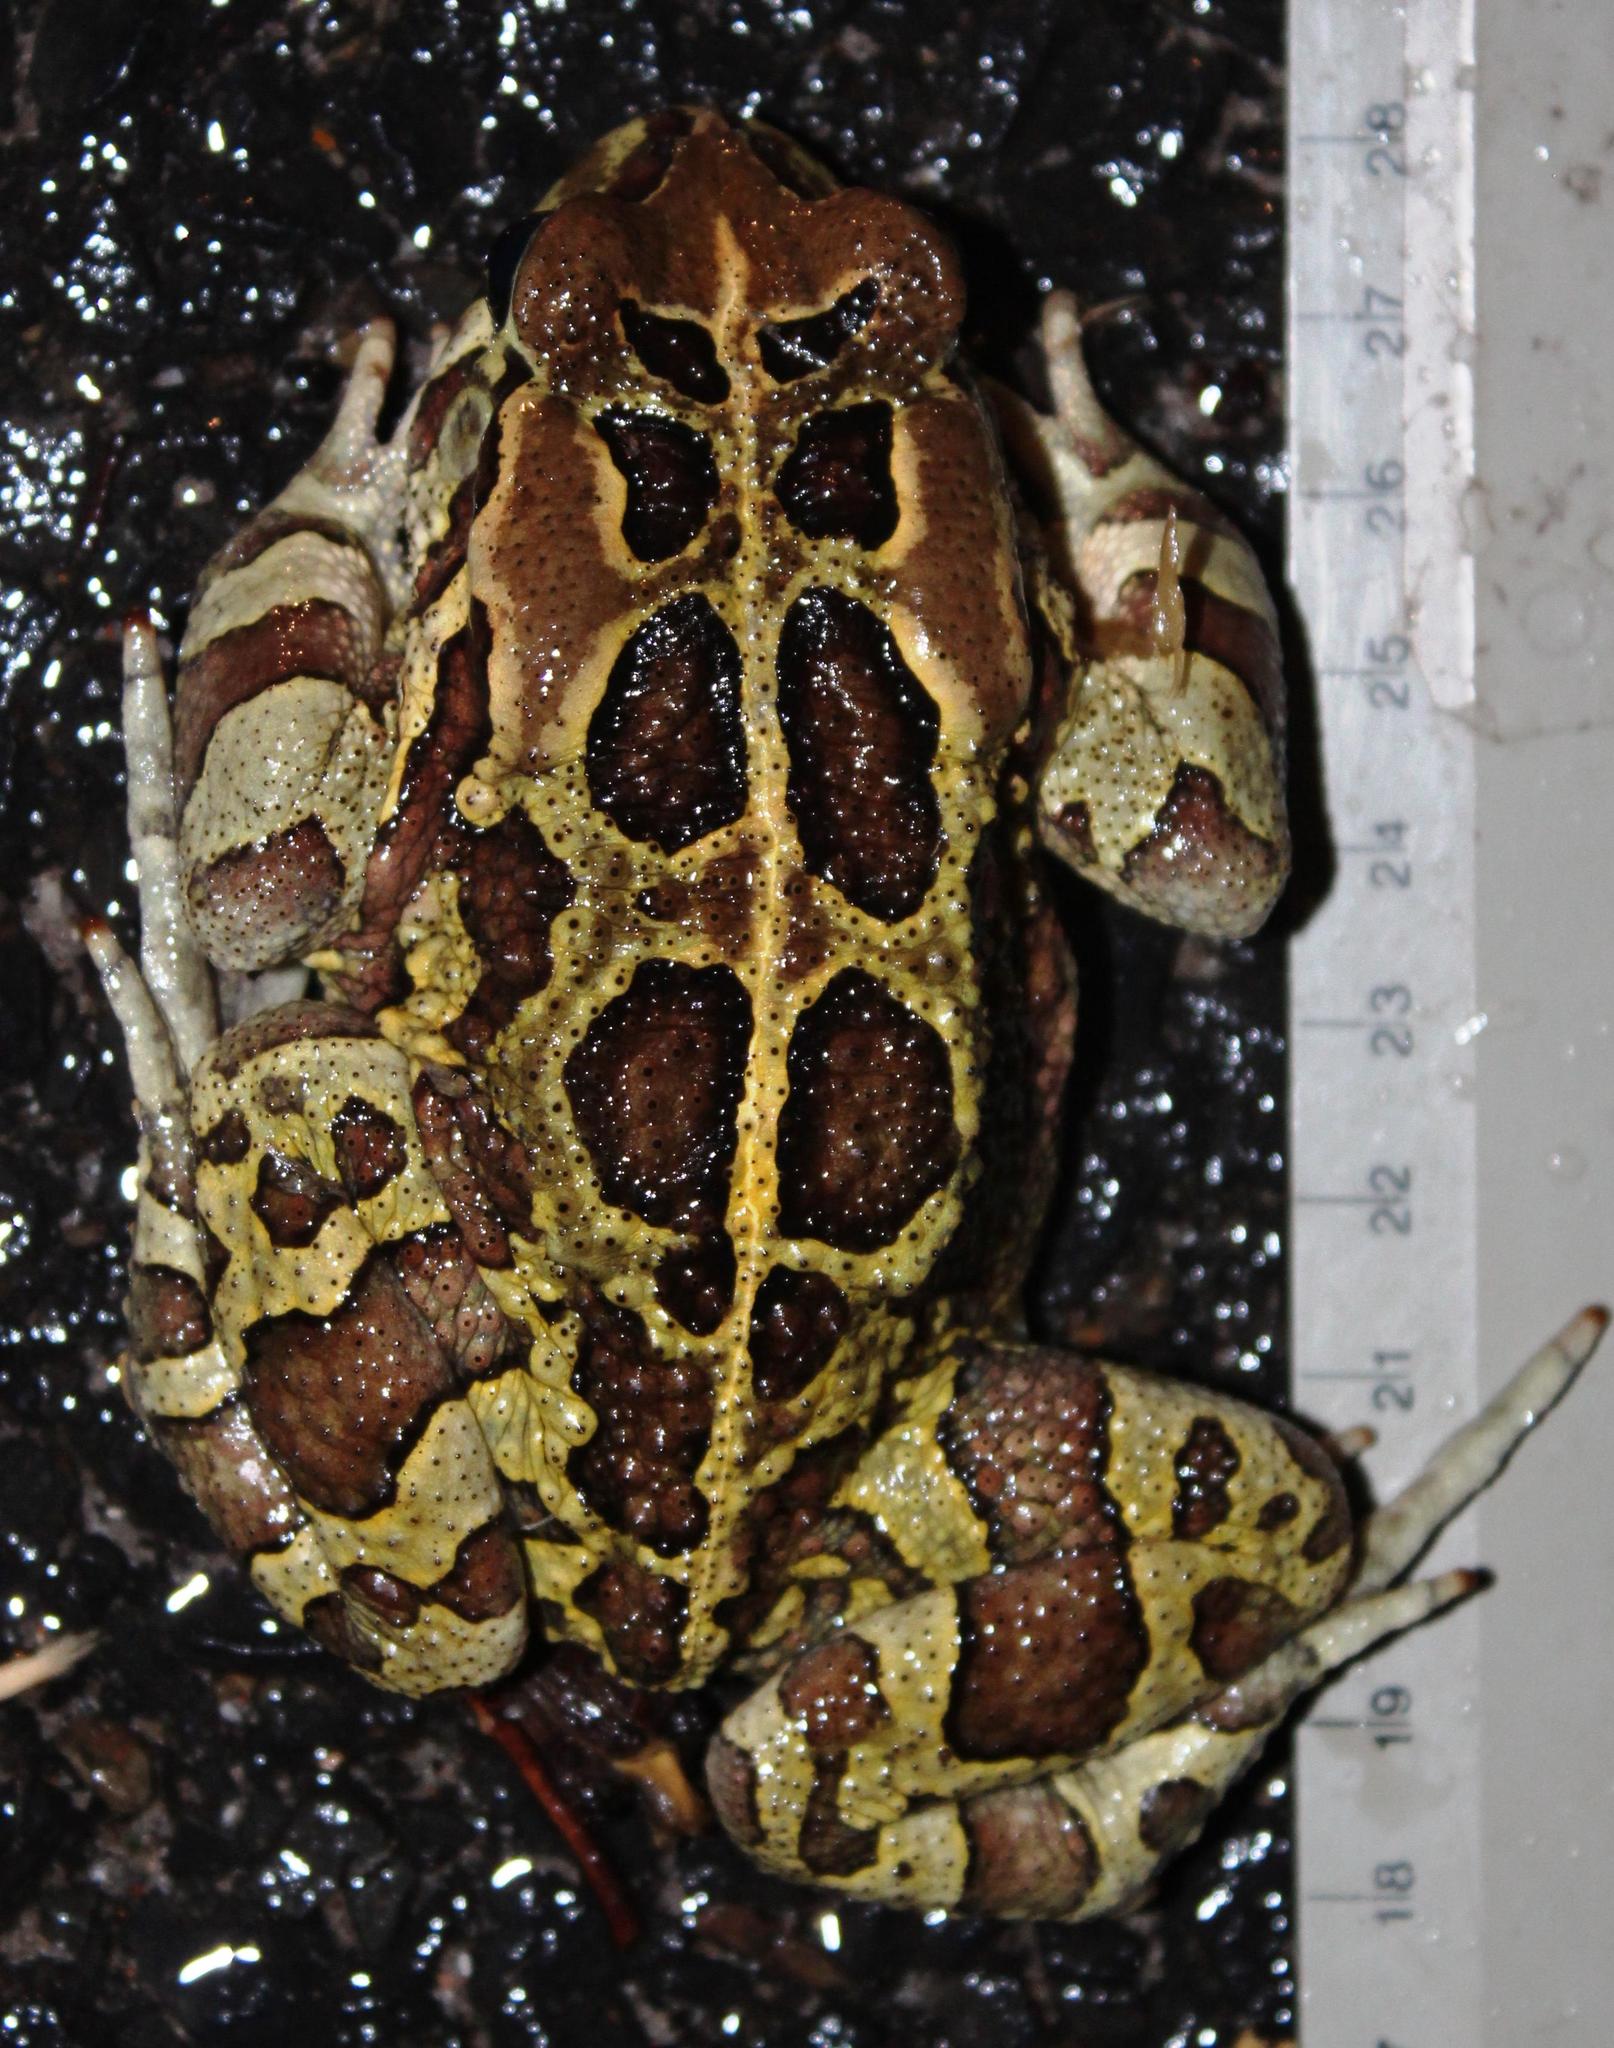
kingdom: Animalia
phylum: Chordata
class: Amphibia
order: Anura
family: Bufonidae
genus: Sclerophrys
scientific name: Sclerophrys pantherina
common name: Panther toad
